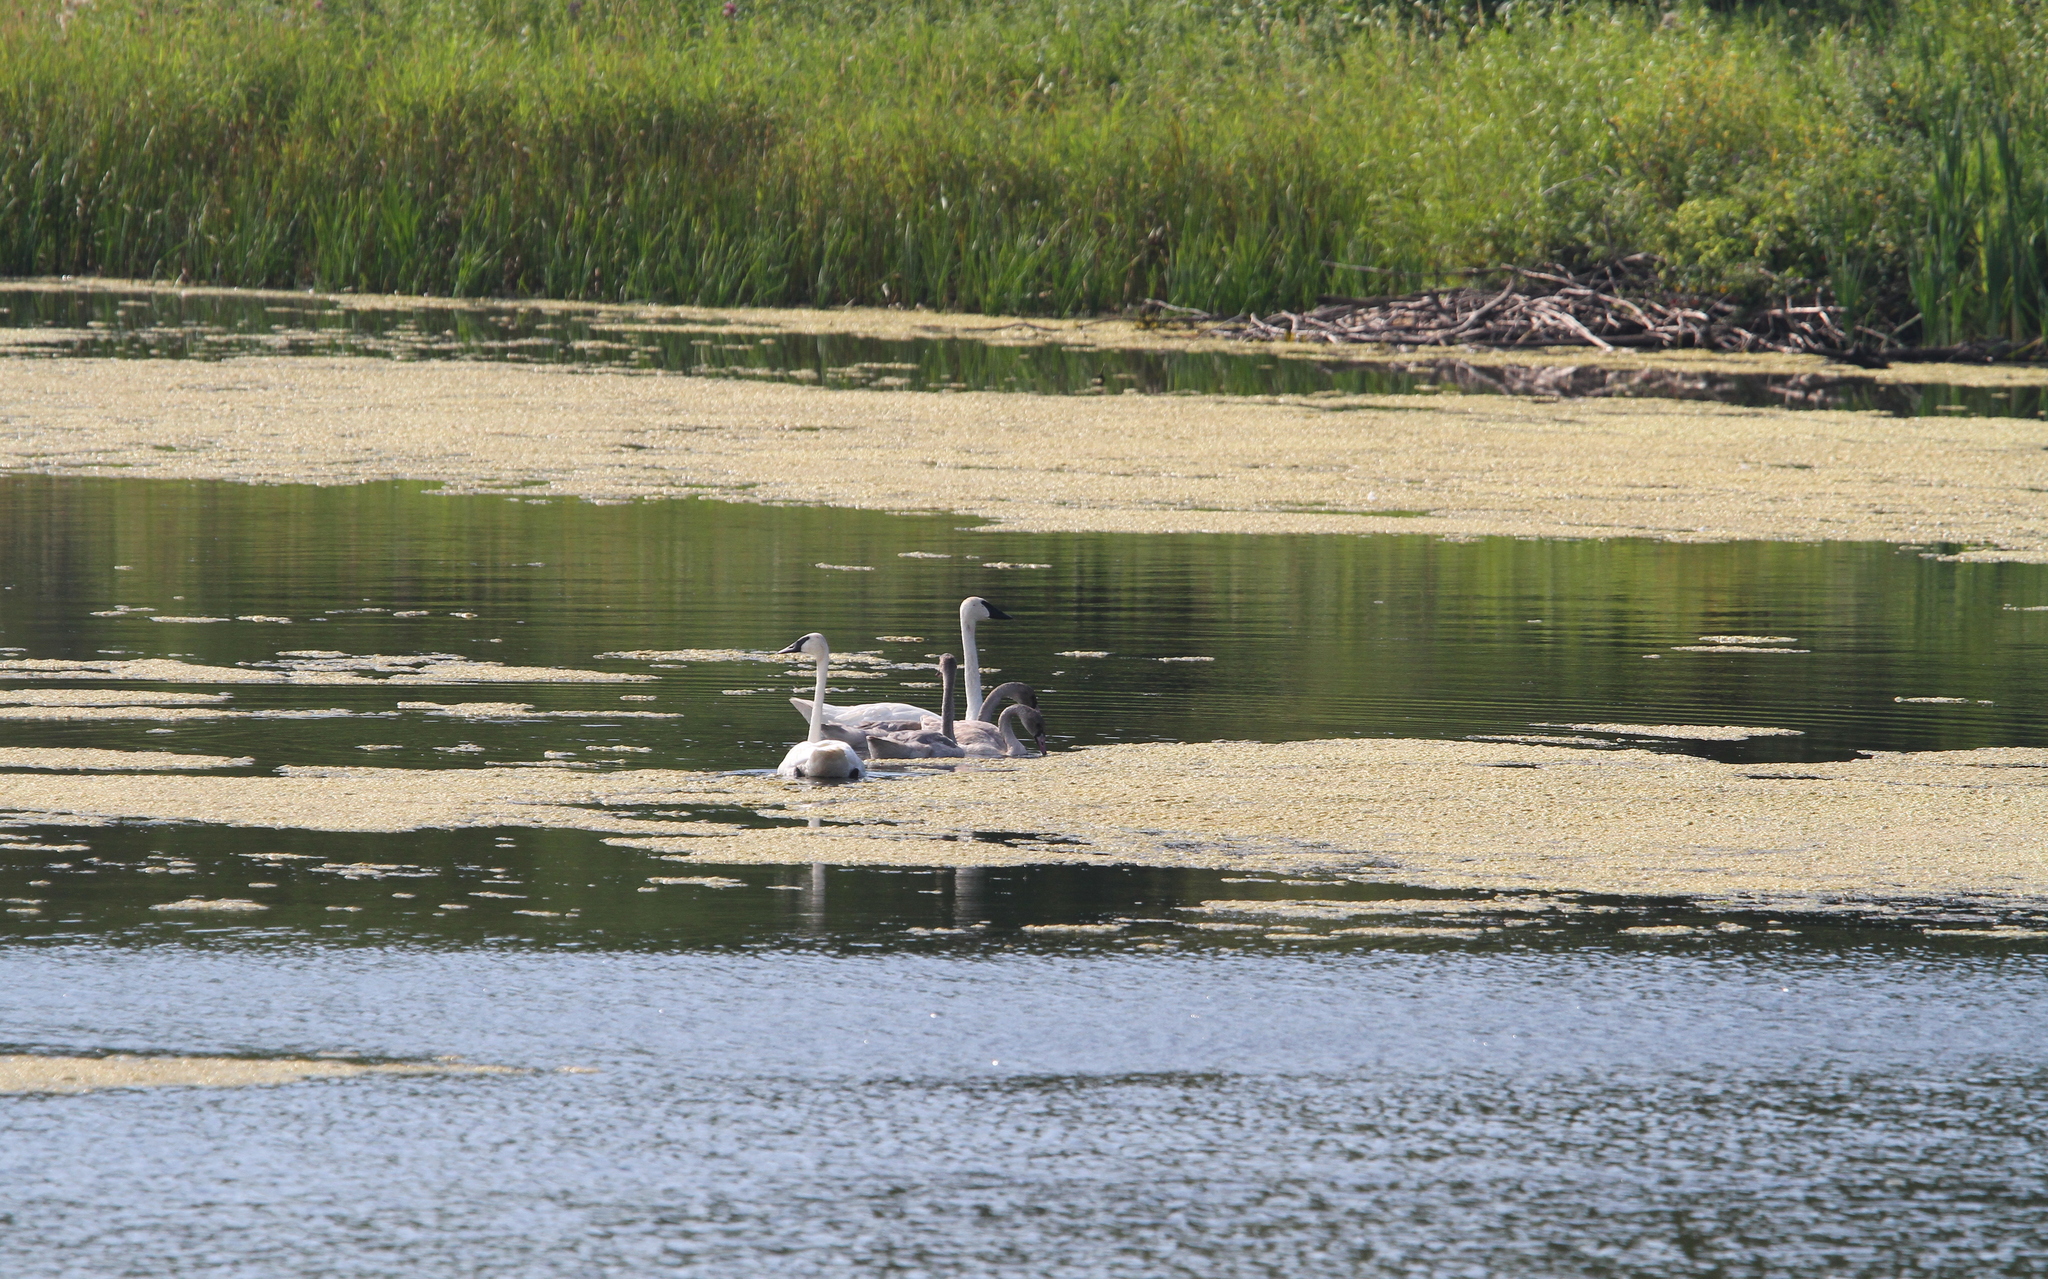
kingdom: Animalia
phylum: Chordata
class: Aves
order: Anseriformes
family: Anatidae
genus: Cygnus
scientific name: Cygnus buccinator
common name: Trumpeter swan
